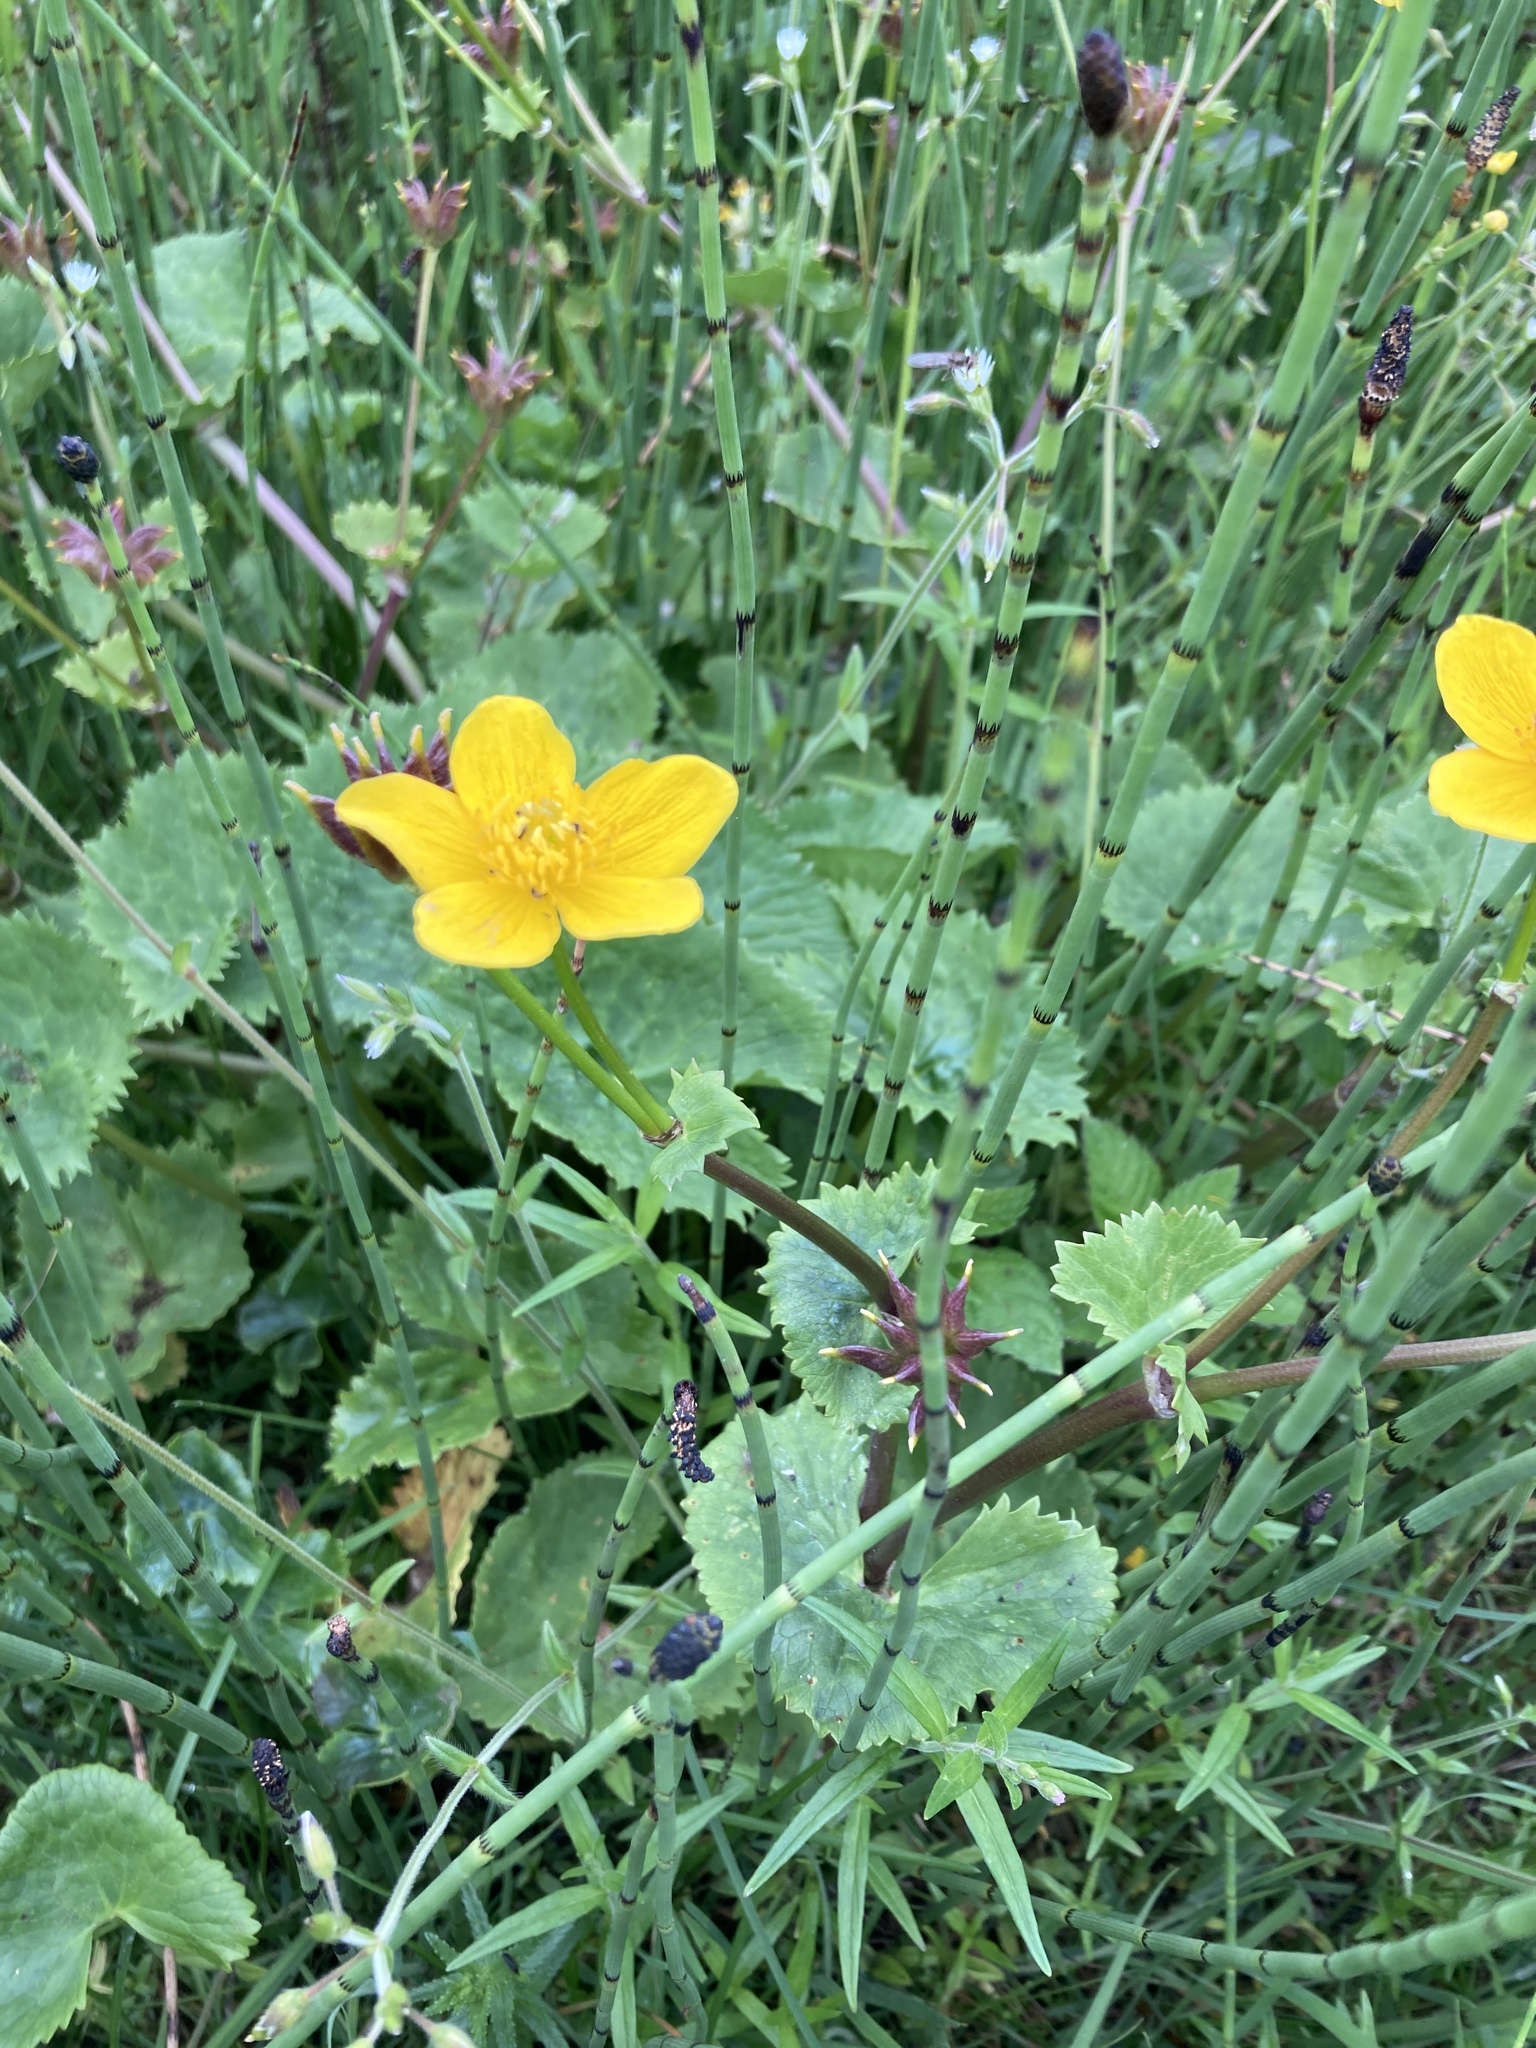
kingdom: Plantae
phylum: Tracheophyta
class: Magnoliopsida
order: Ranunculales
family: Ranunculaceae
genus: Caltha
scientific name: Caltha palustris
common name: Marsh marigold
